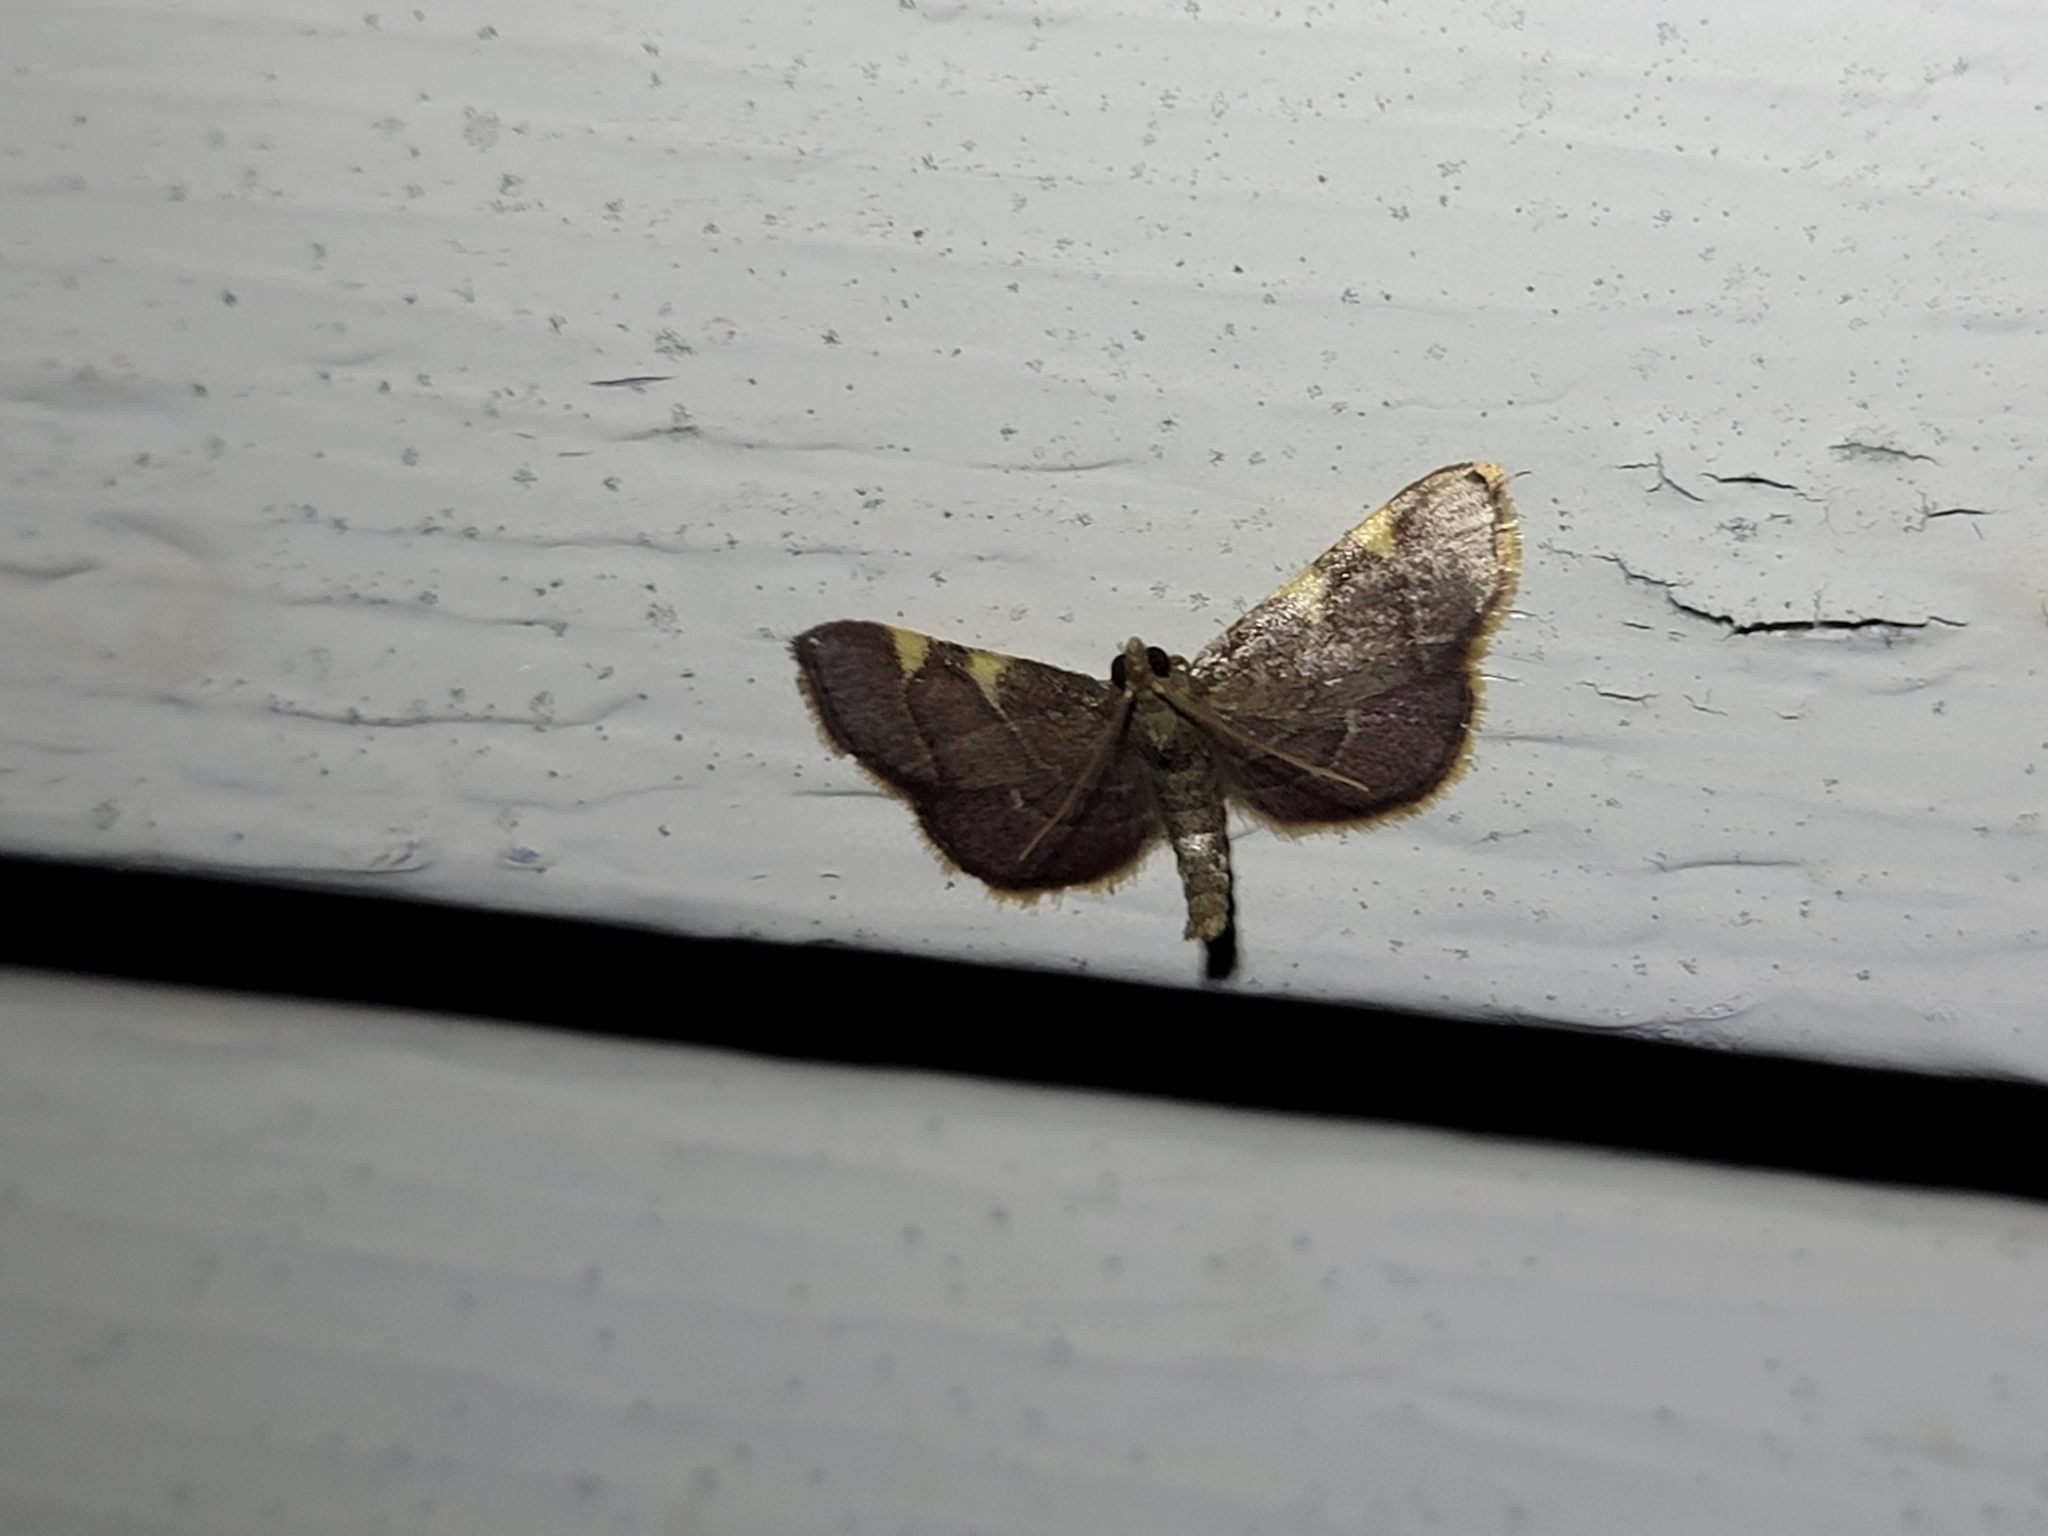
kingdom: Animalia
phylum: Arthropoda
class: Insecta
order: Lepidoptera
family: Pyralidae
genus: Hypsopygia
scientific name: Hypsopygia olinalis
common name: Yellow-fringed dolichomia moth
